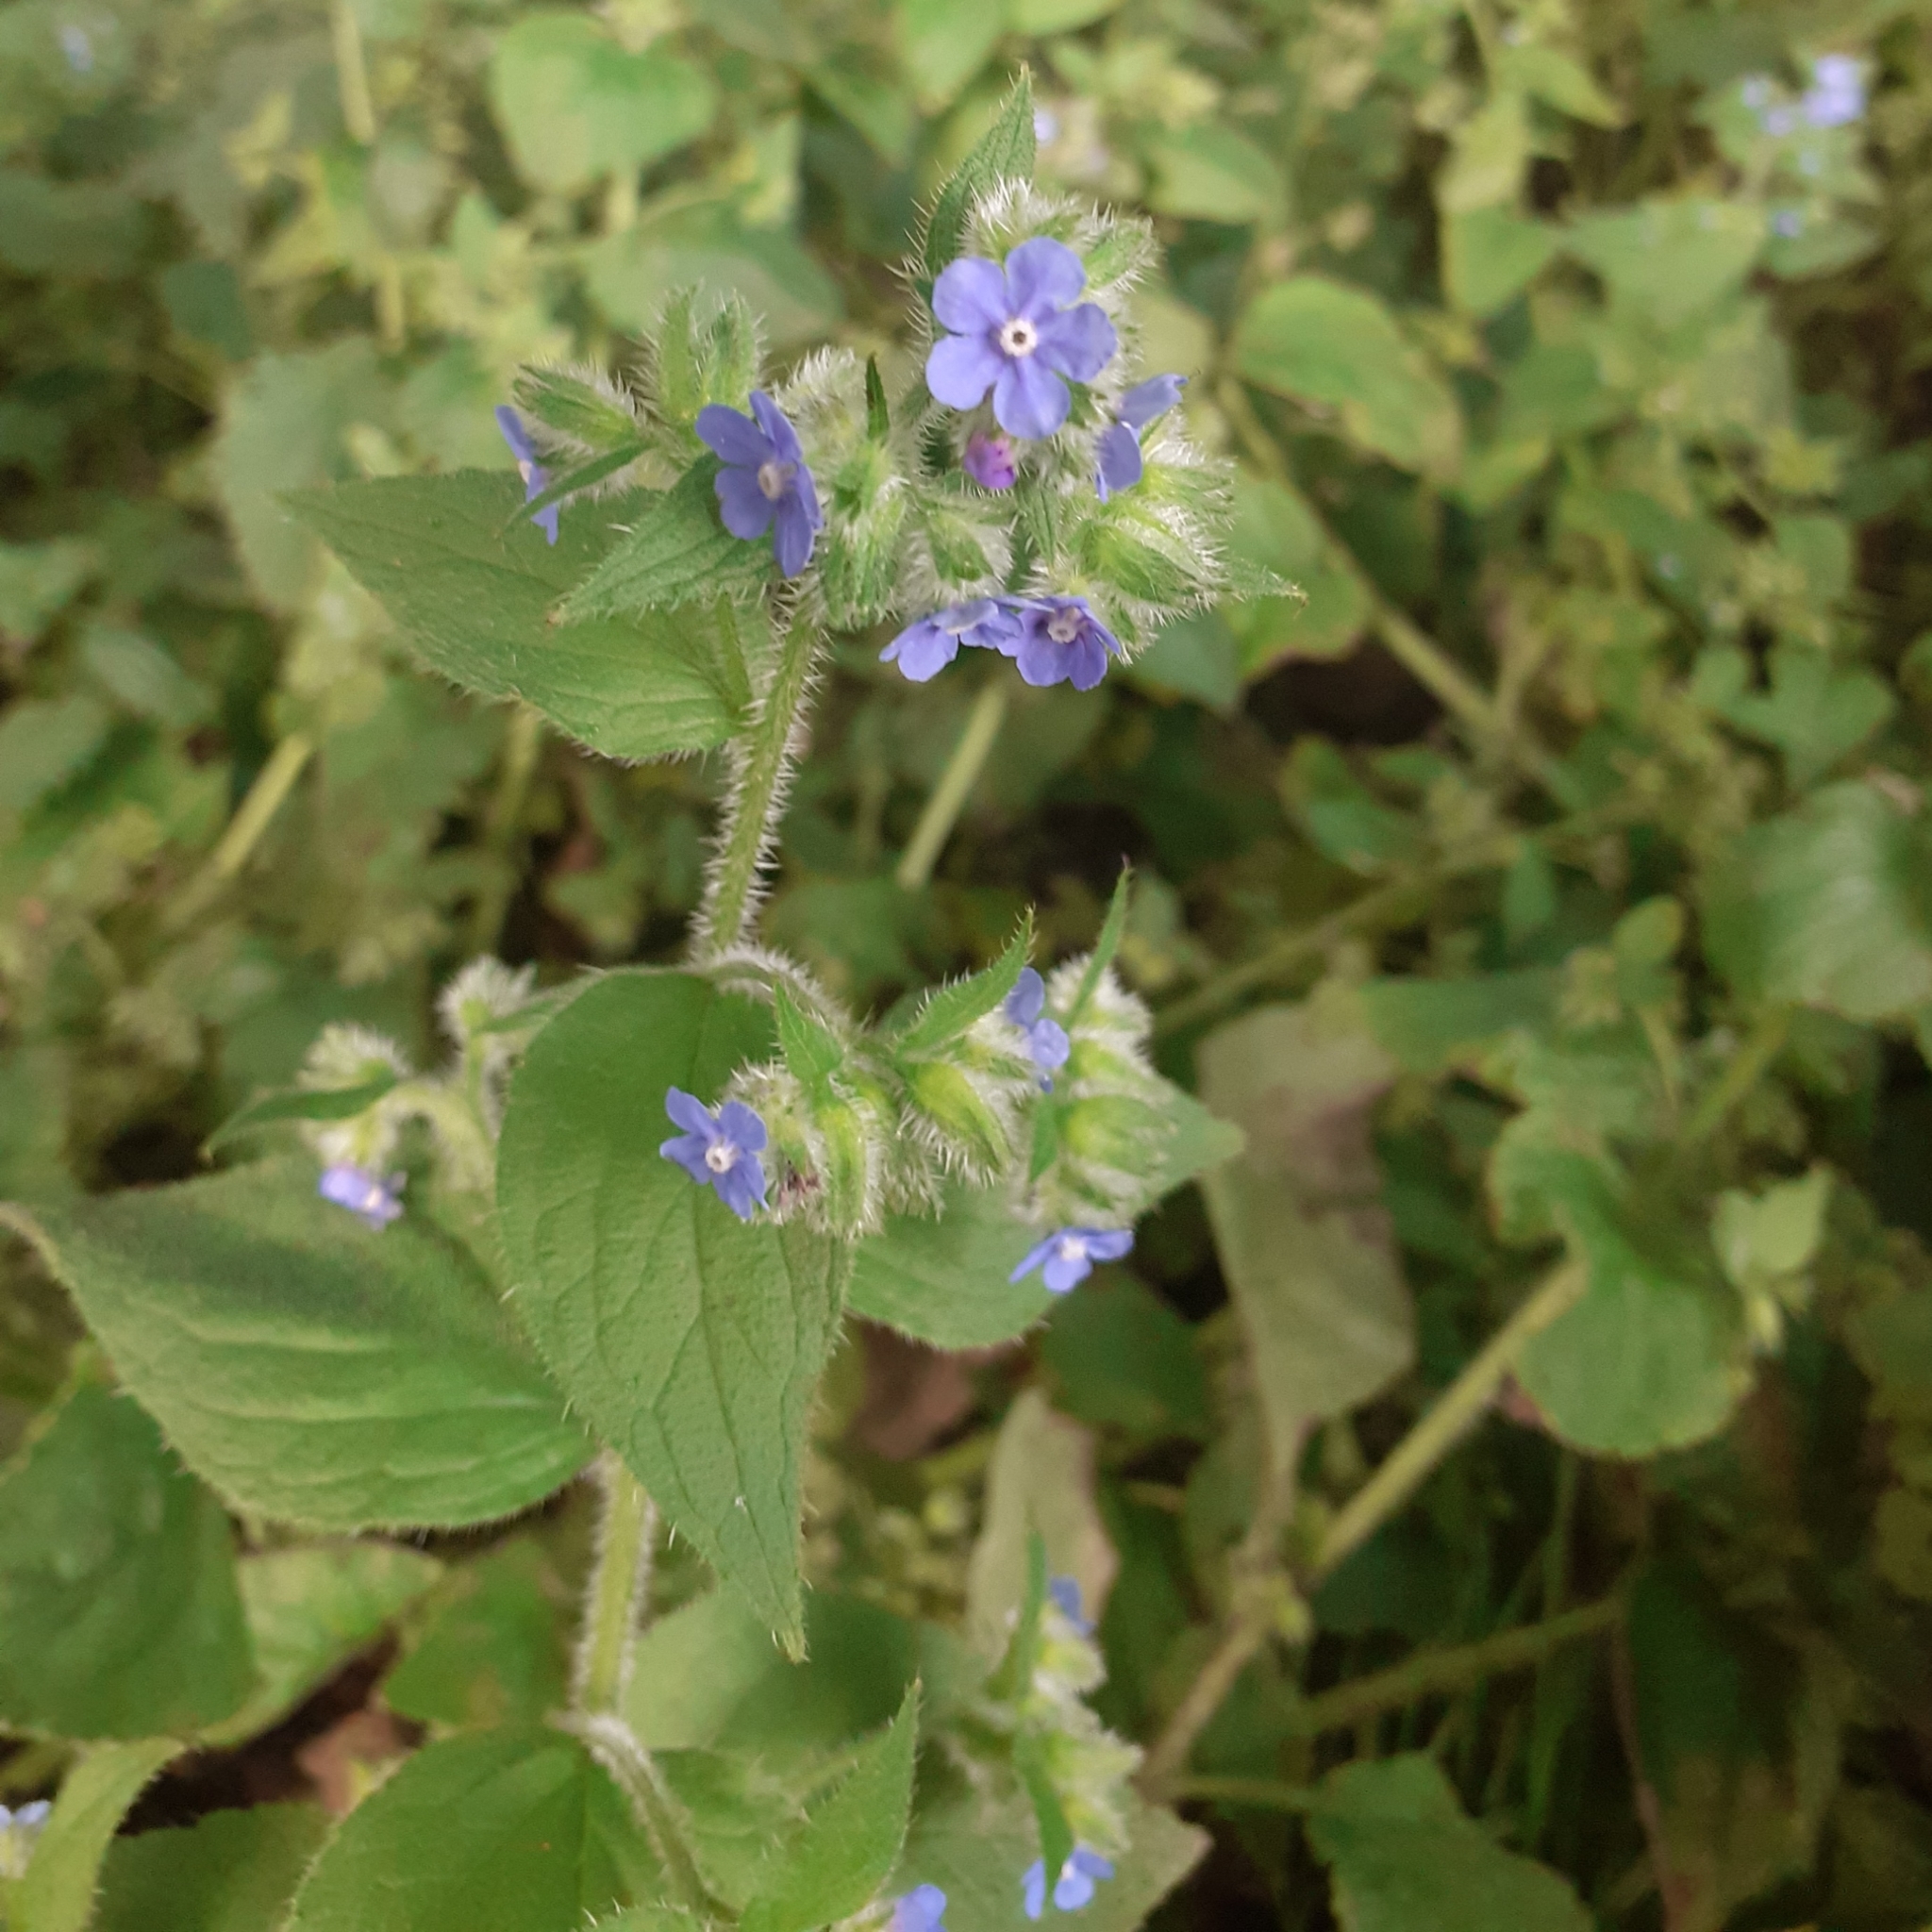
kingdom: Plantae
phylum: Tracheophyta
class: Magnoliopsida
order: Boraginales
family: Boraginaceae
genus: Pentaglottis
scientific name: Pentaglottis sempervirens
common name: Green alkanet
